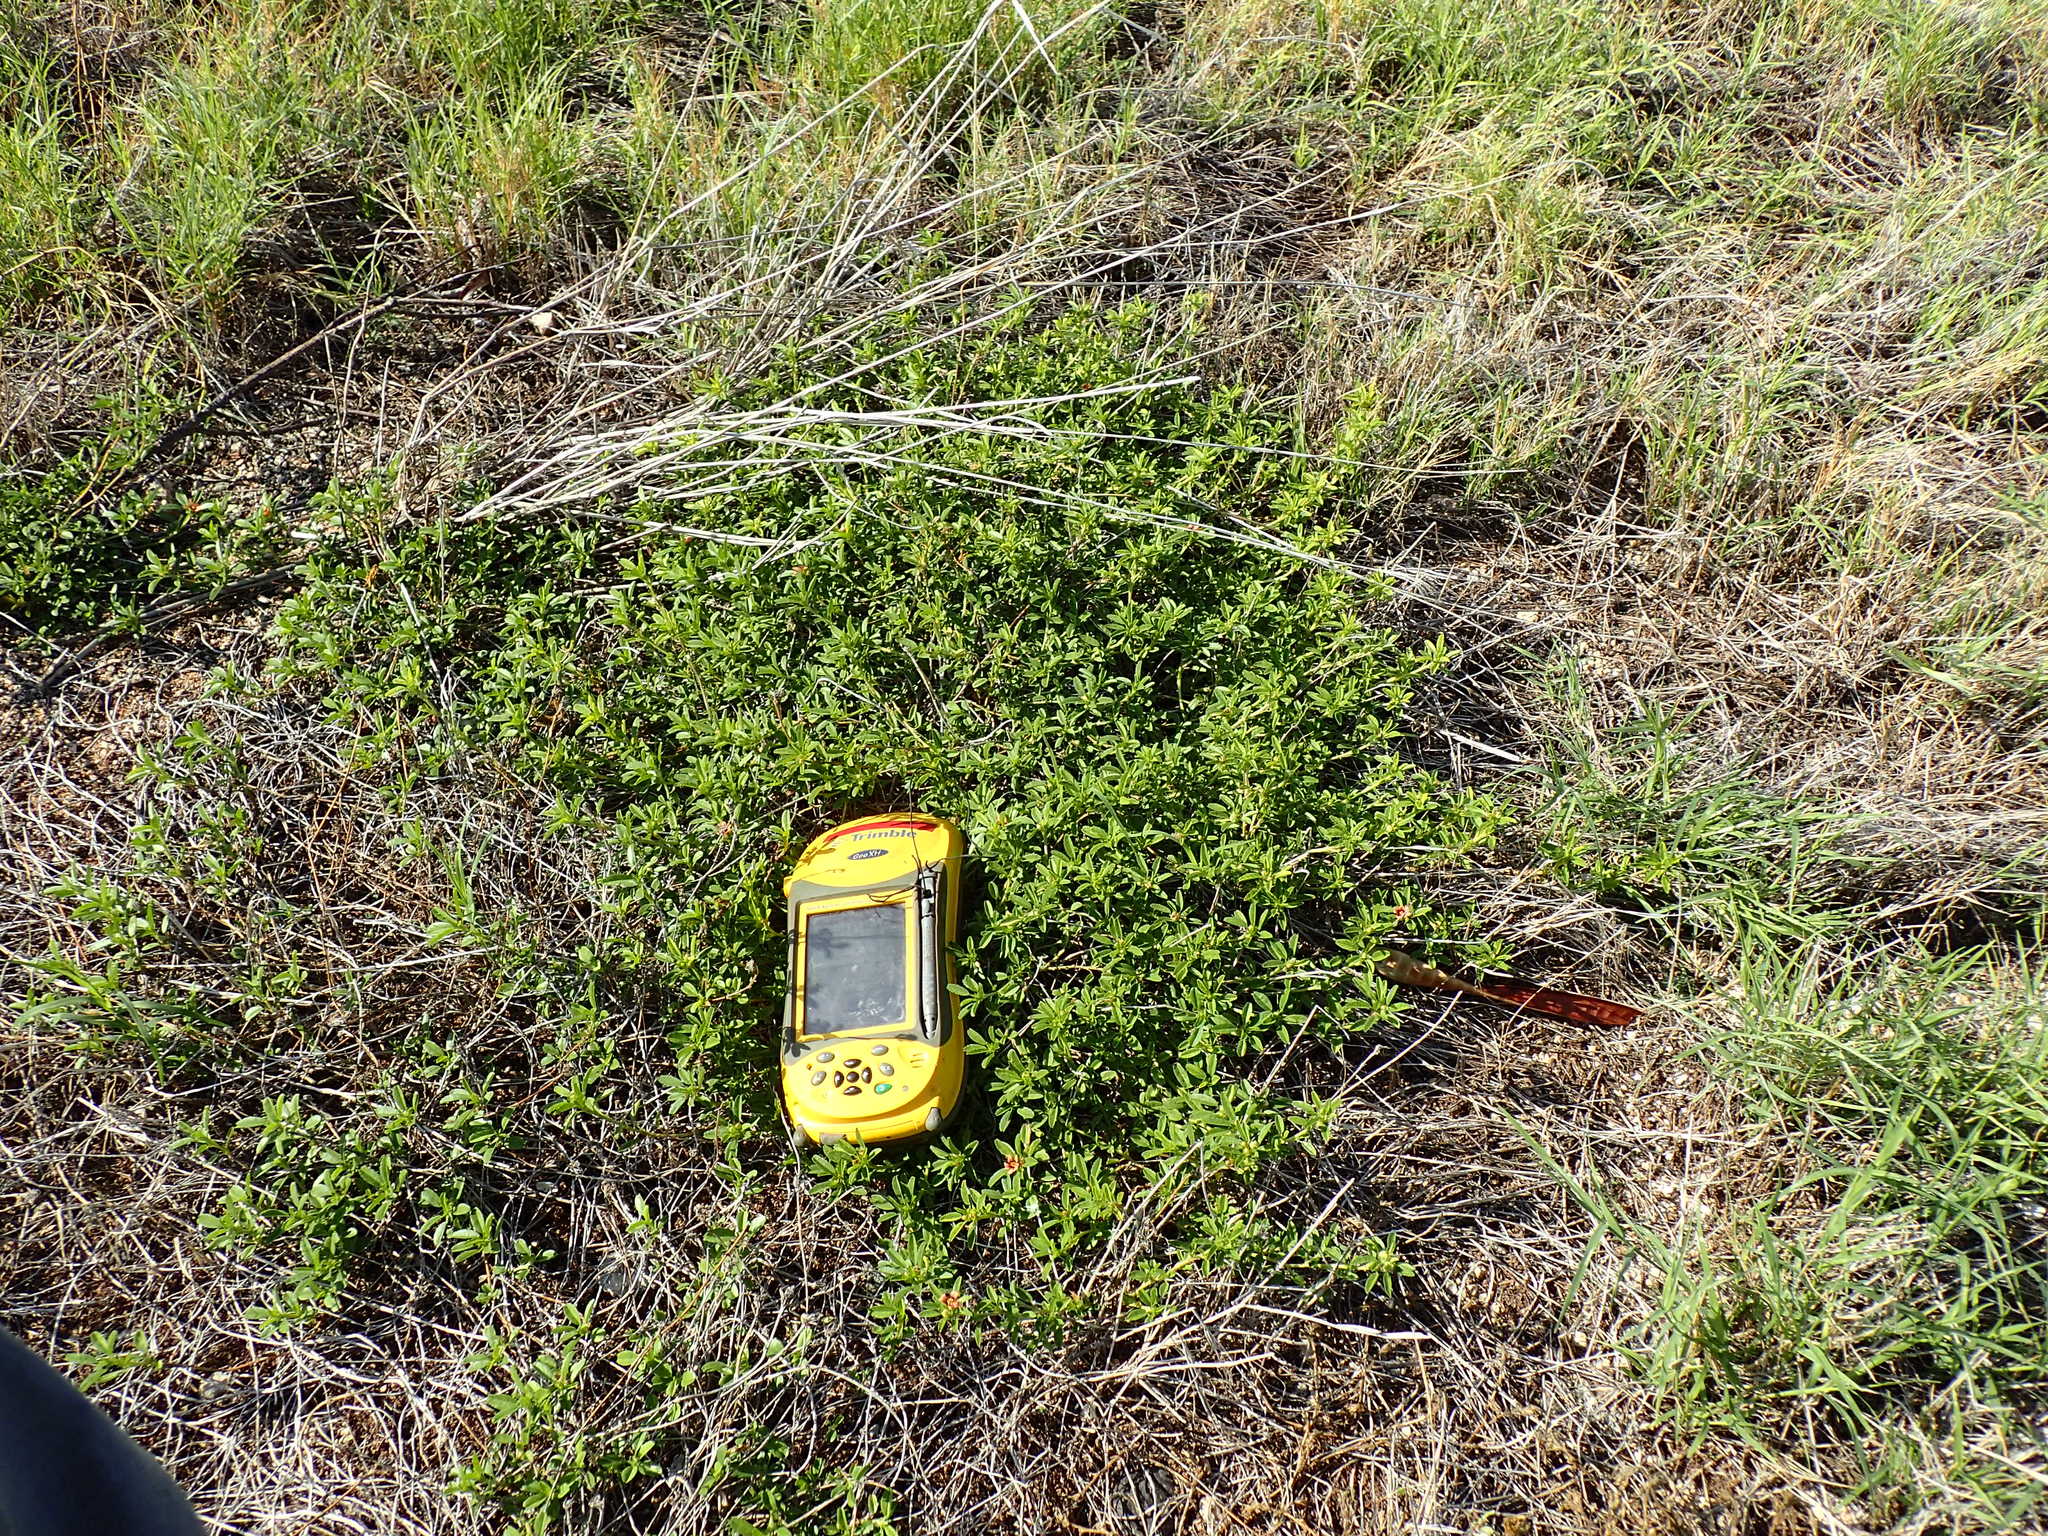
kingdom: Plantae
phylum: Tracheophyta
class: Magnoliopsida
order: Malvales
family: Malvaceae
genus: Sida
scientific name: Sida ciliaris
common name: Bracted fanpetals
